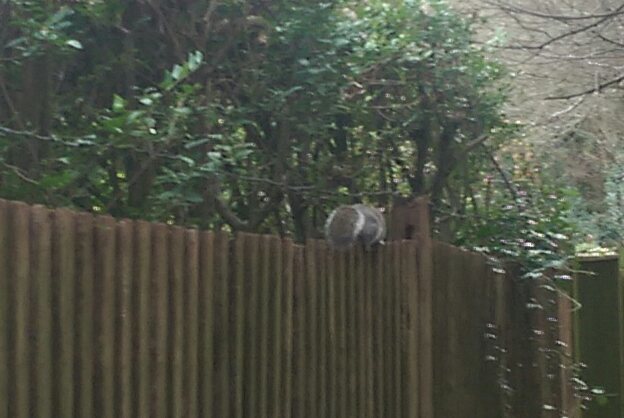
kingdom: Animalia
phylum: Chordata
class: Mammalia
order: Rodentia
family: Sciuridae
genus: Sciurus
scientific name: Sciurus carolinensis
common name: Eastern gray squirrel
